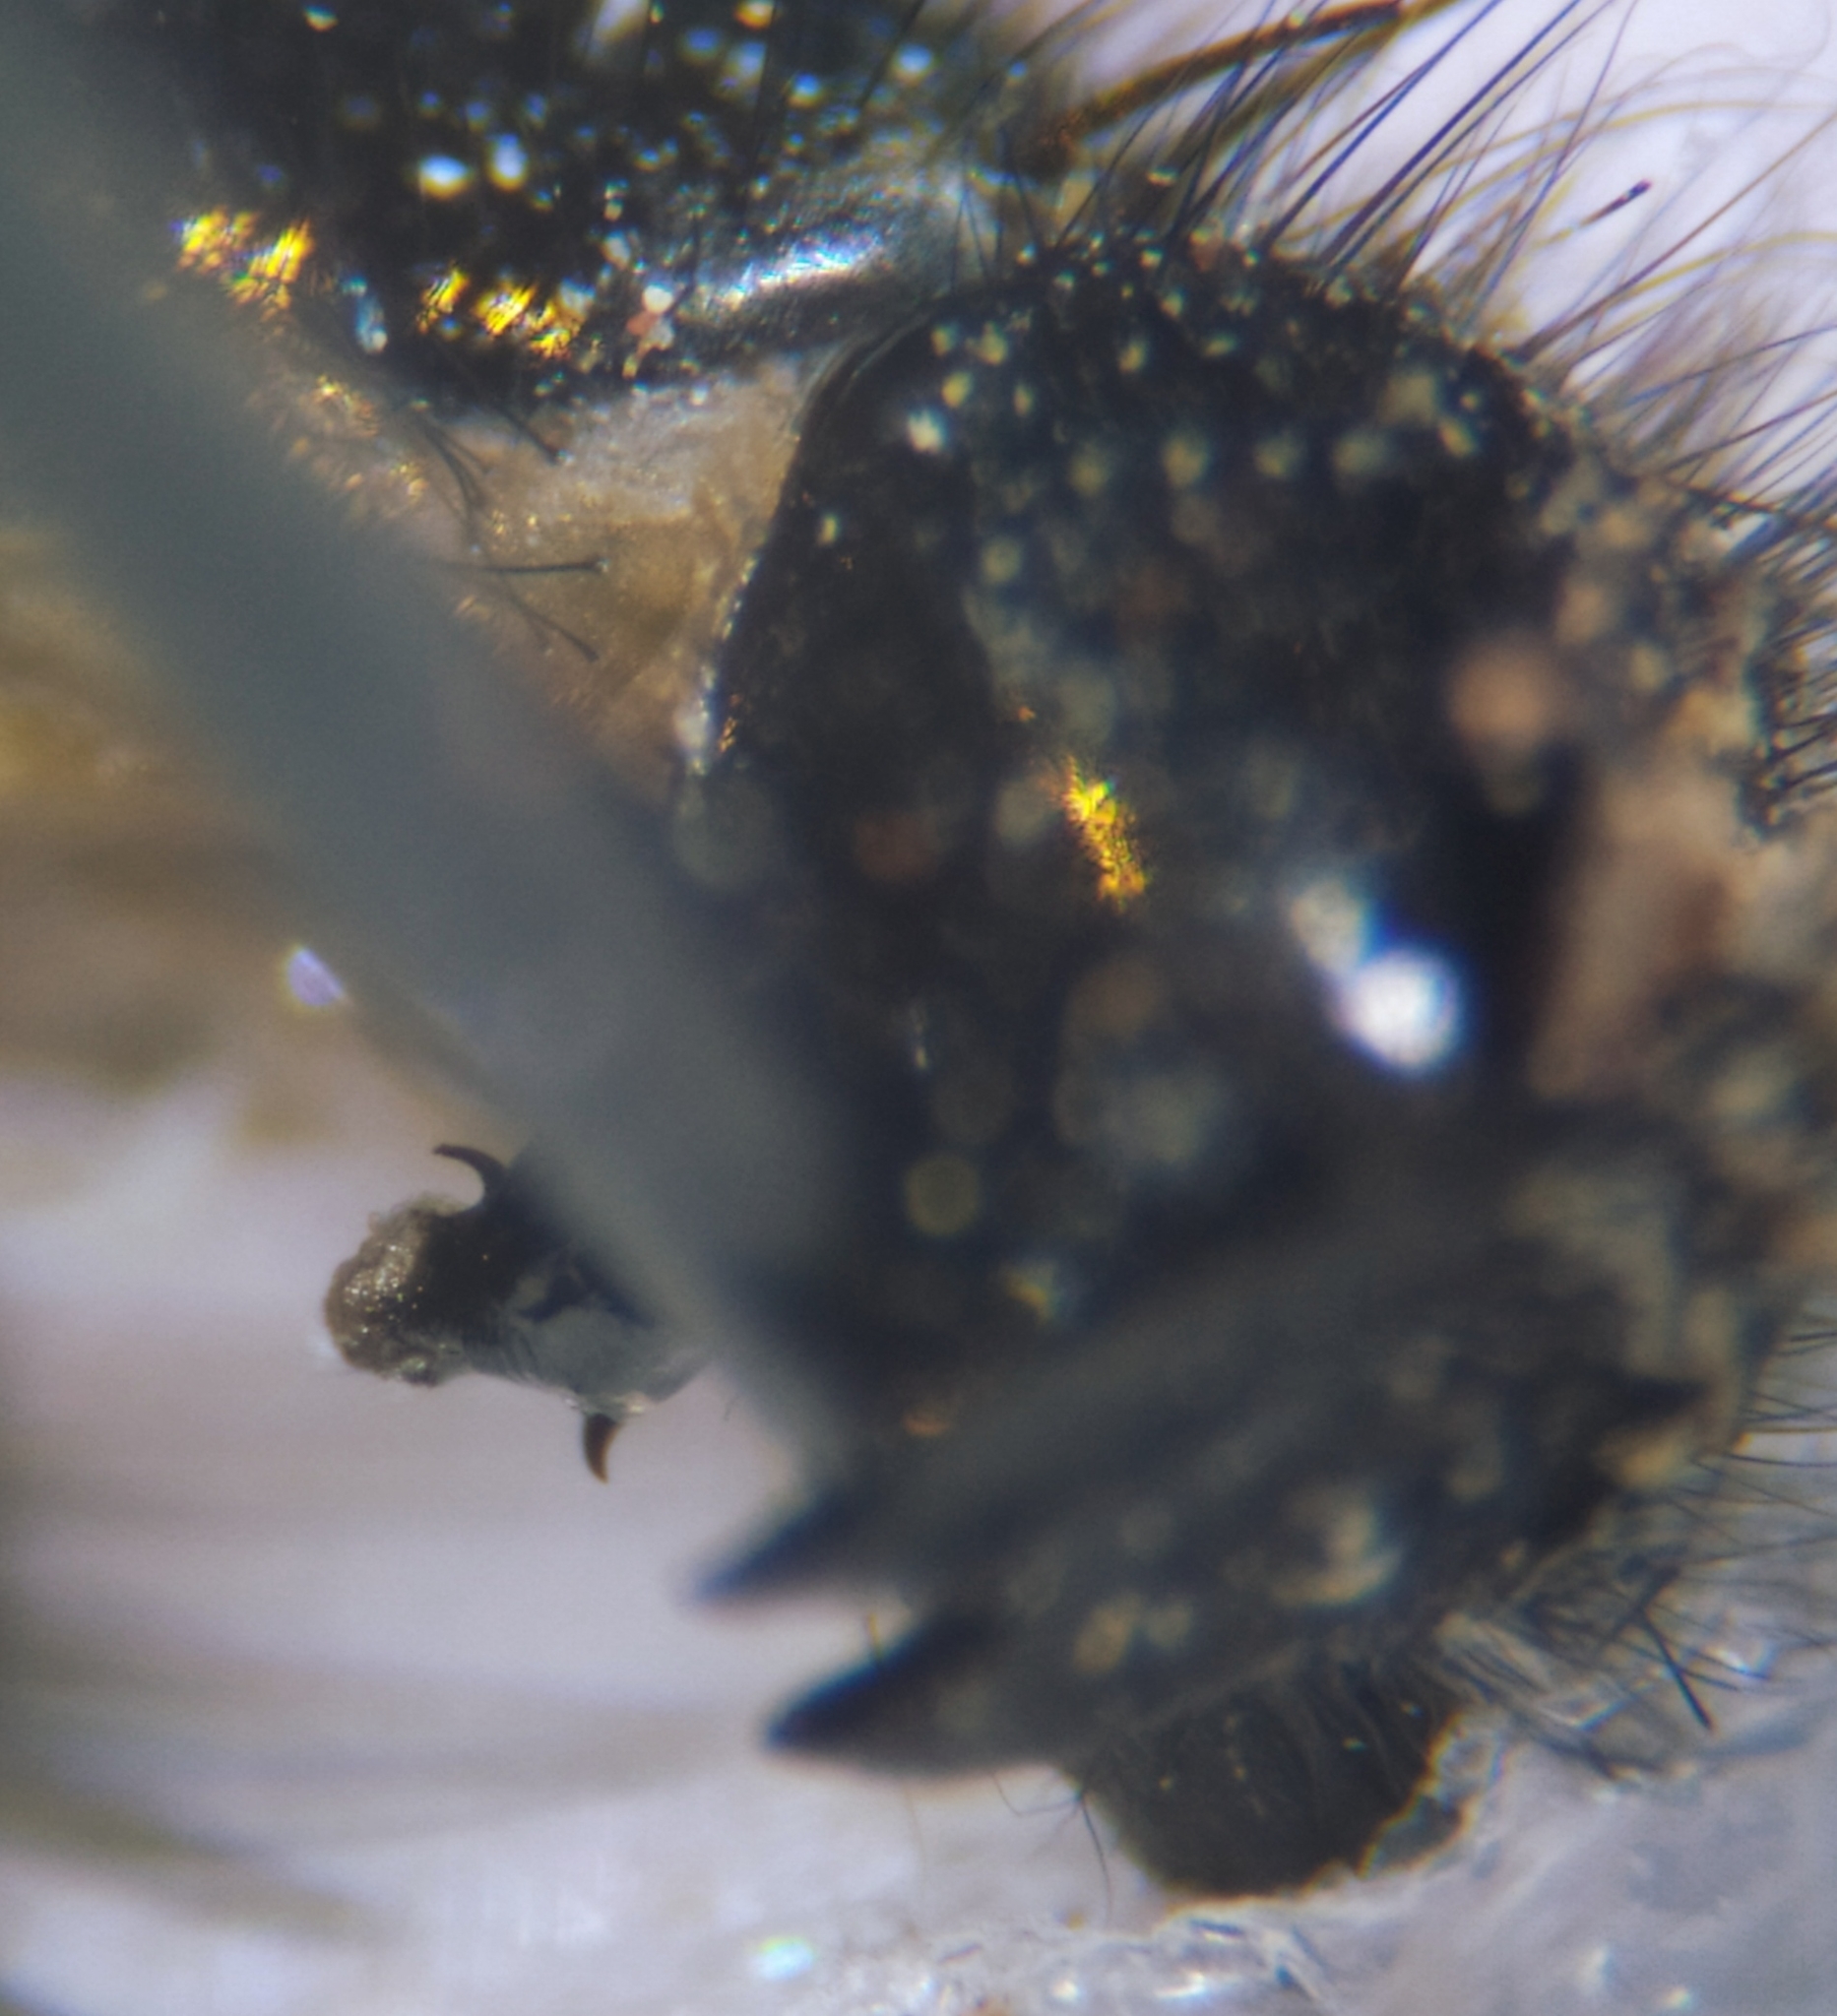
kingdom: Animalia
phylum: Arthropoda
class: Insecta
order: Diptera
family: Sarcophagidae
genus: Sarcophaga
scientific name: Sarcophaga novercoides
